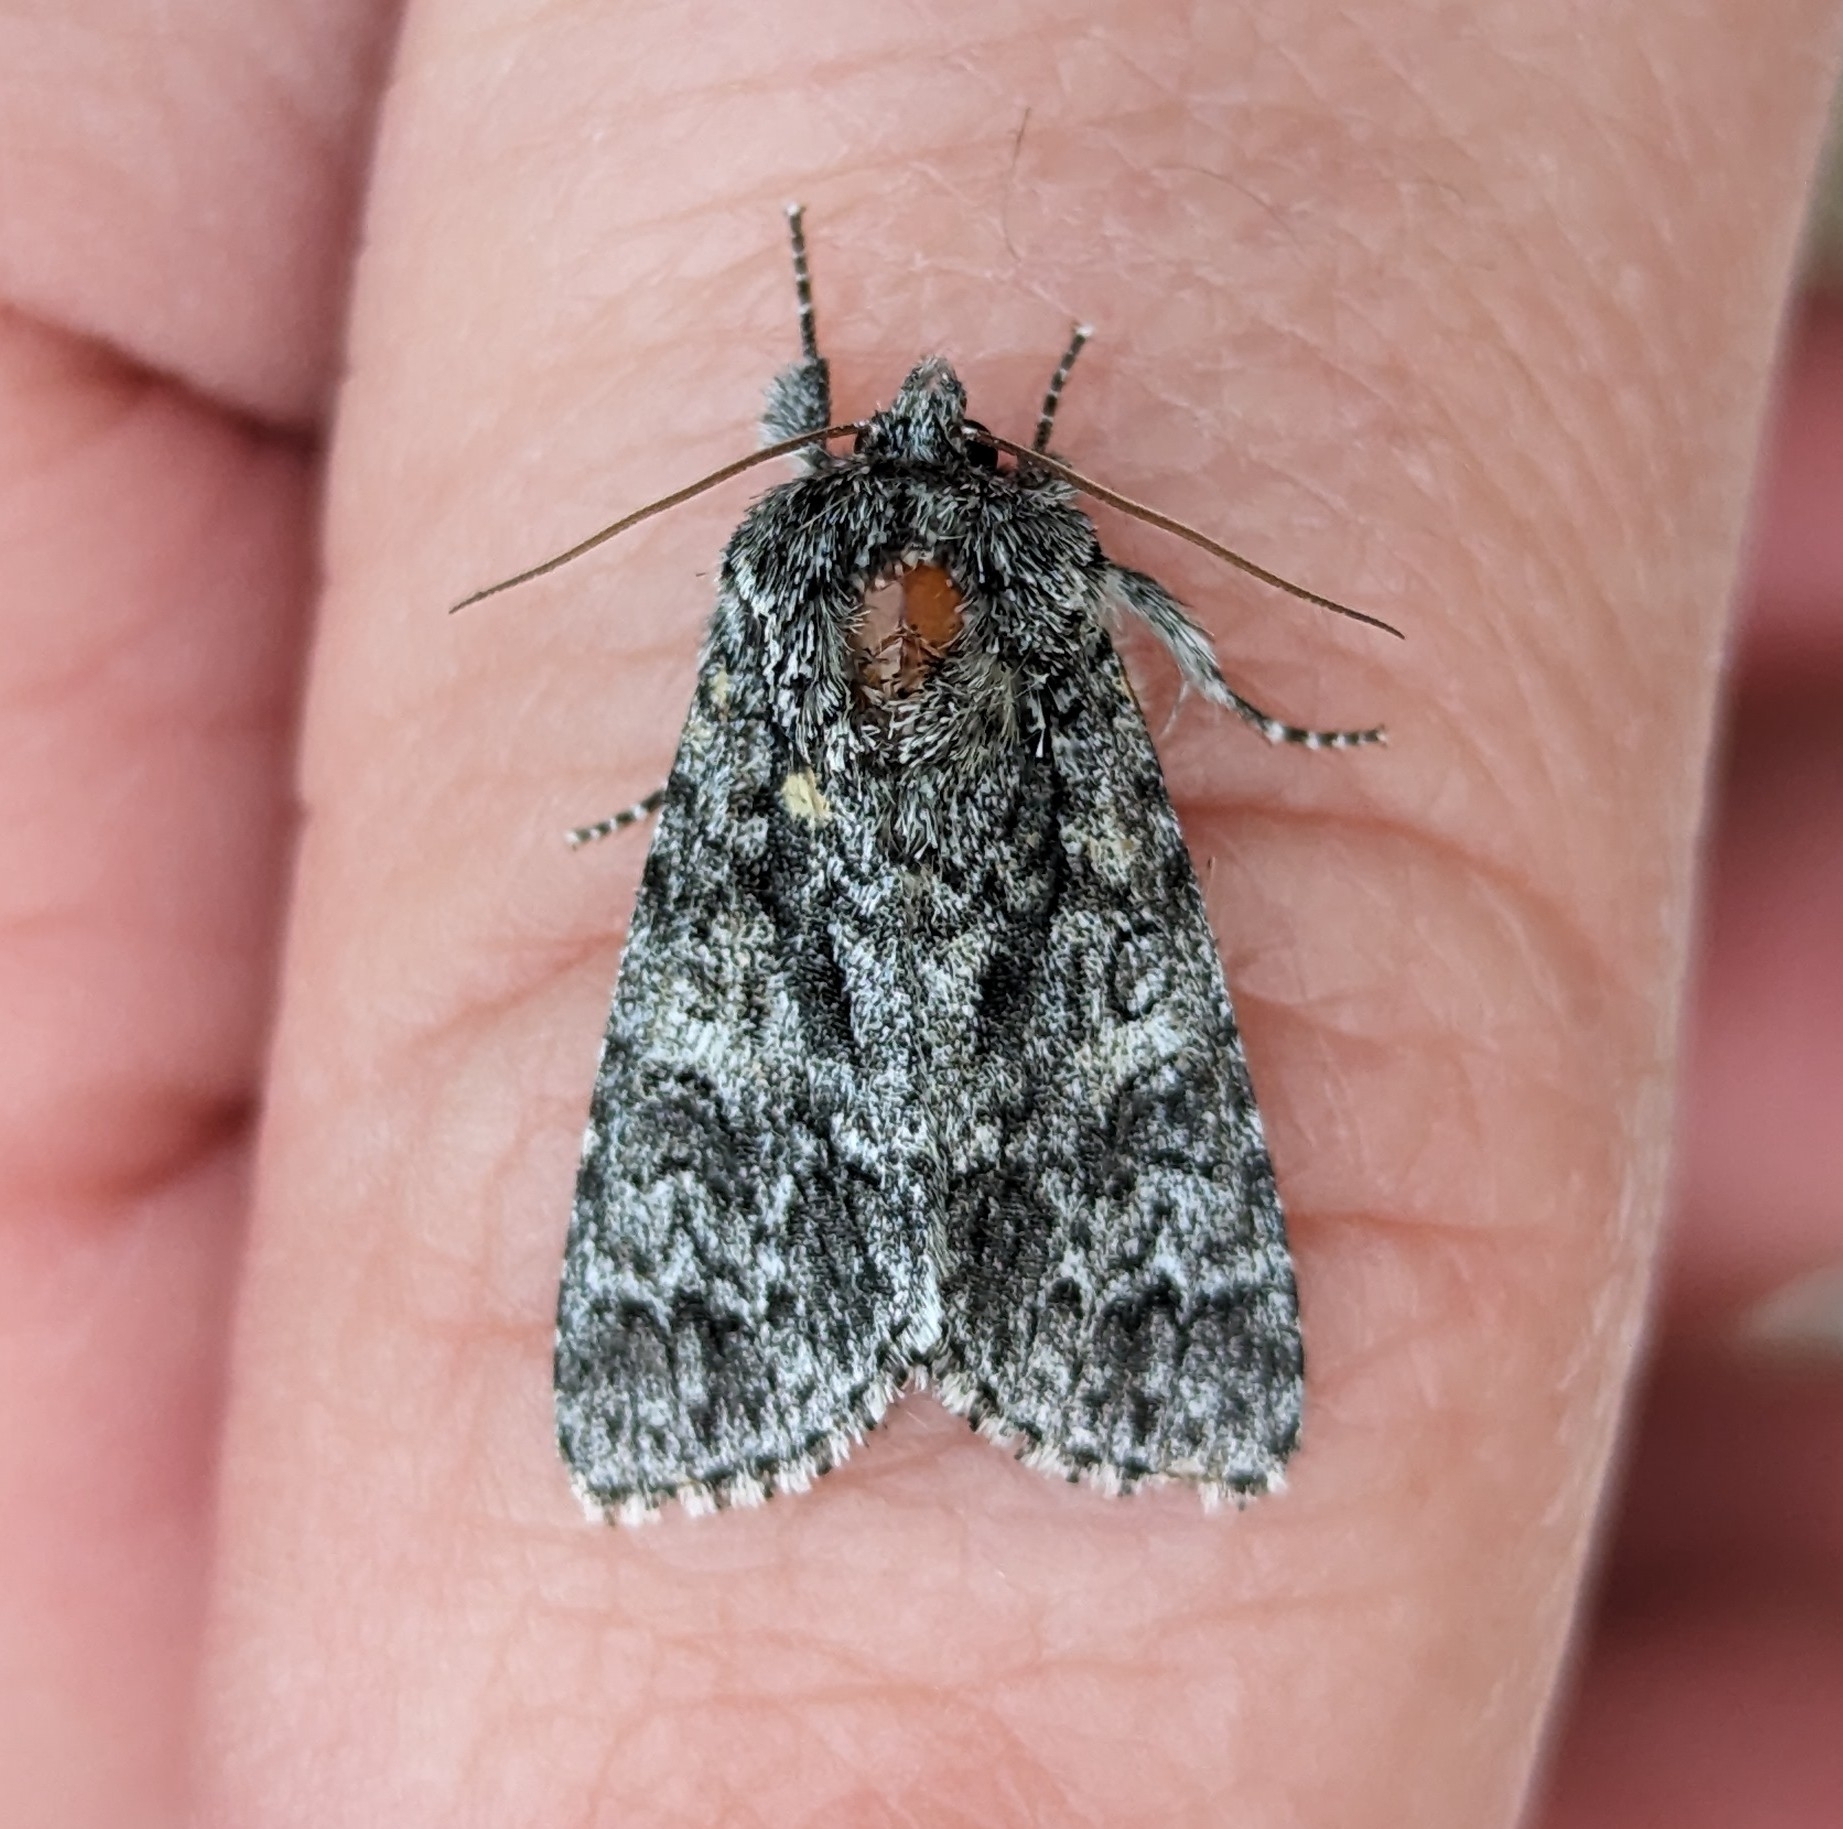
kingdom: Animalia
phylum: Arthropoda
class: Insecta
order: Lepidoptera
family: Noctuidae
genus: Acronicta
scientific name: Acronicta impressa
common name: Impressed dagger
